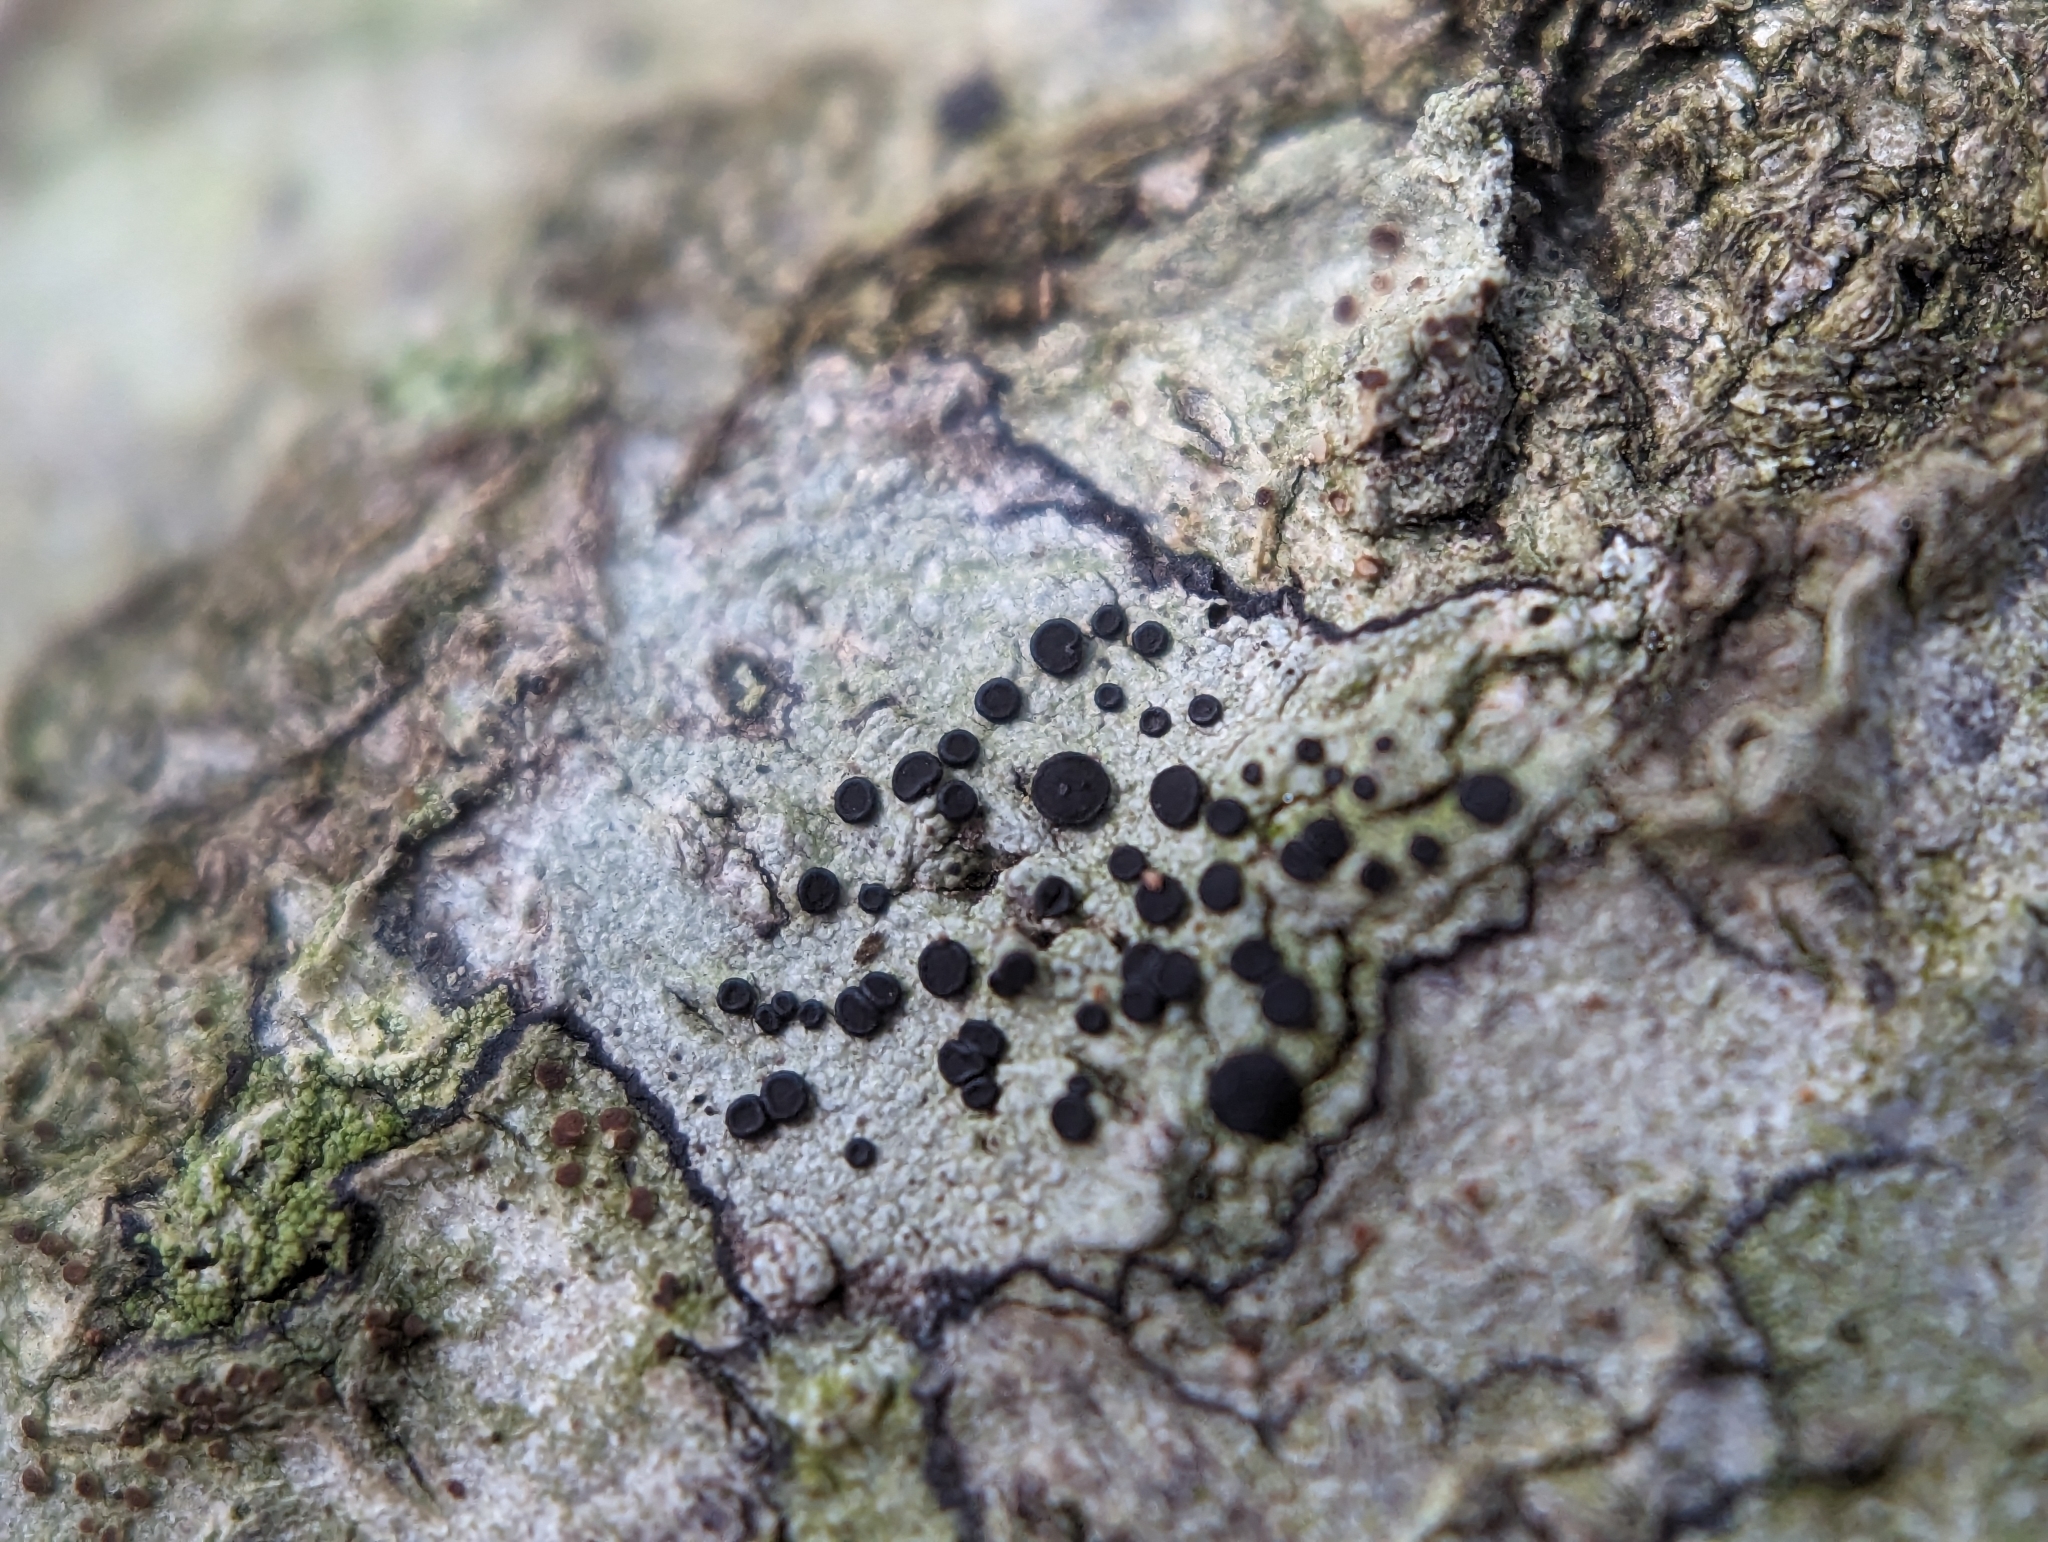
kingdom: Fungi
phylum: Ascomycota
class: Lecanoromycetes
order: Caliciales
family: Caliciaceae
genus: Buellia
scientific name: Buellia erubescens
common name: Common button lichen
